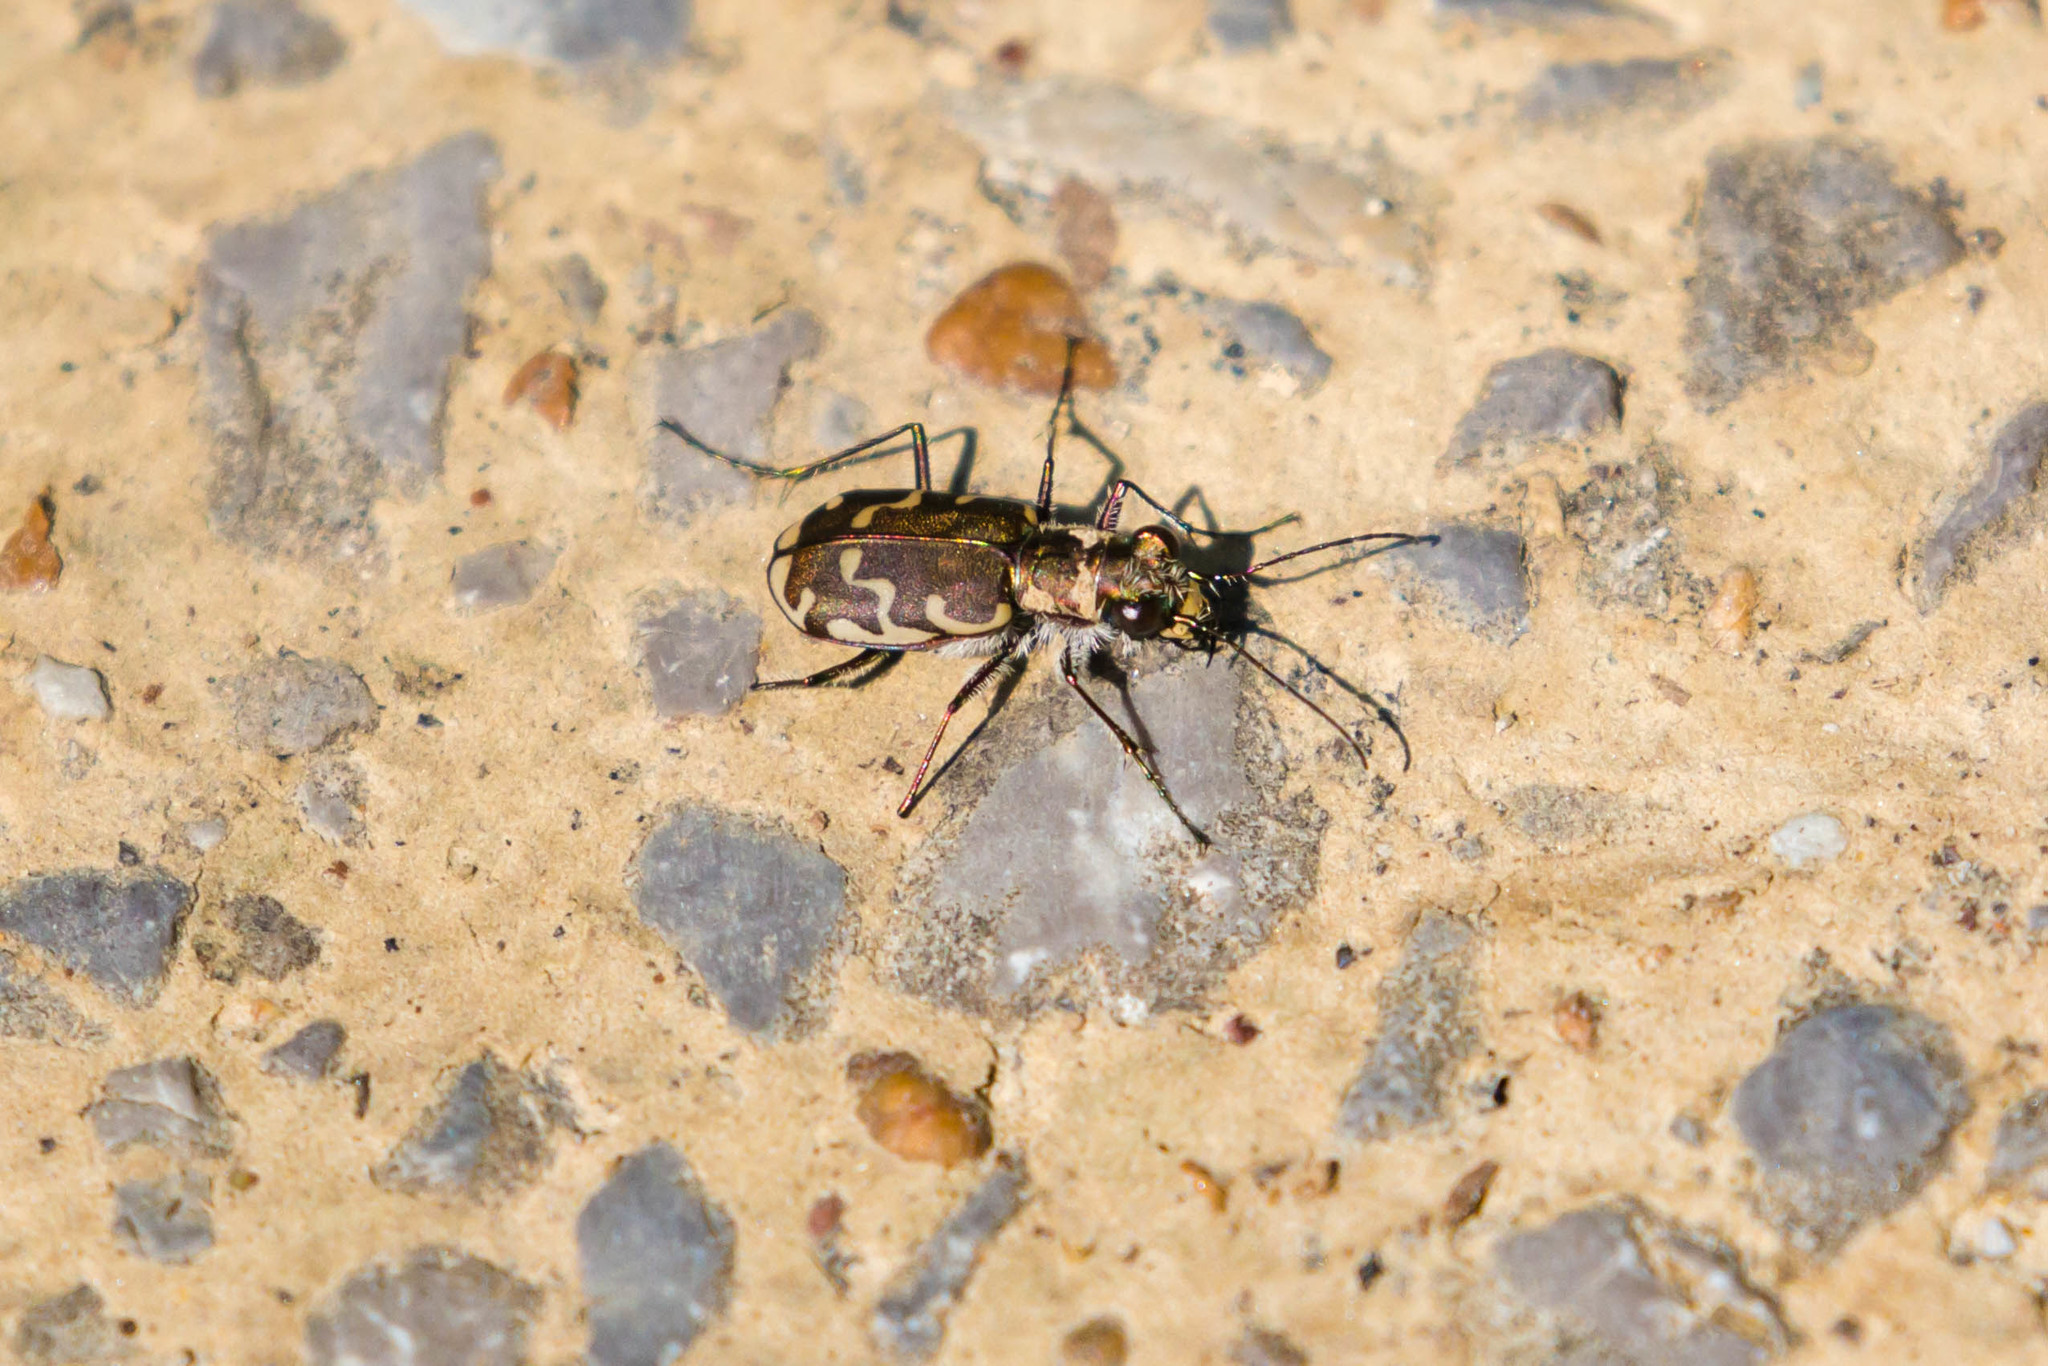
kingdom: Animalia
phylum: Arthropoda
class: Insecta
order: Coleoptera
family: Carabidae
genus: Cicindela
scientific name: Cicindela repanda
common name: Bronzed tiger beetle
